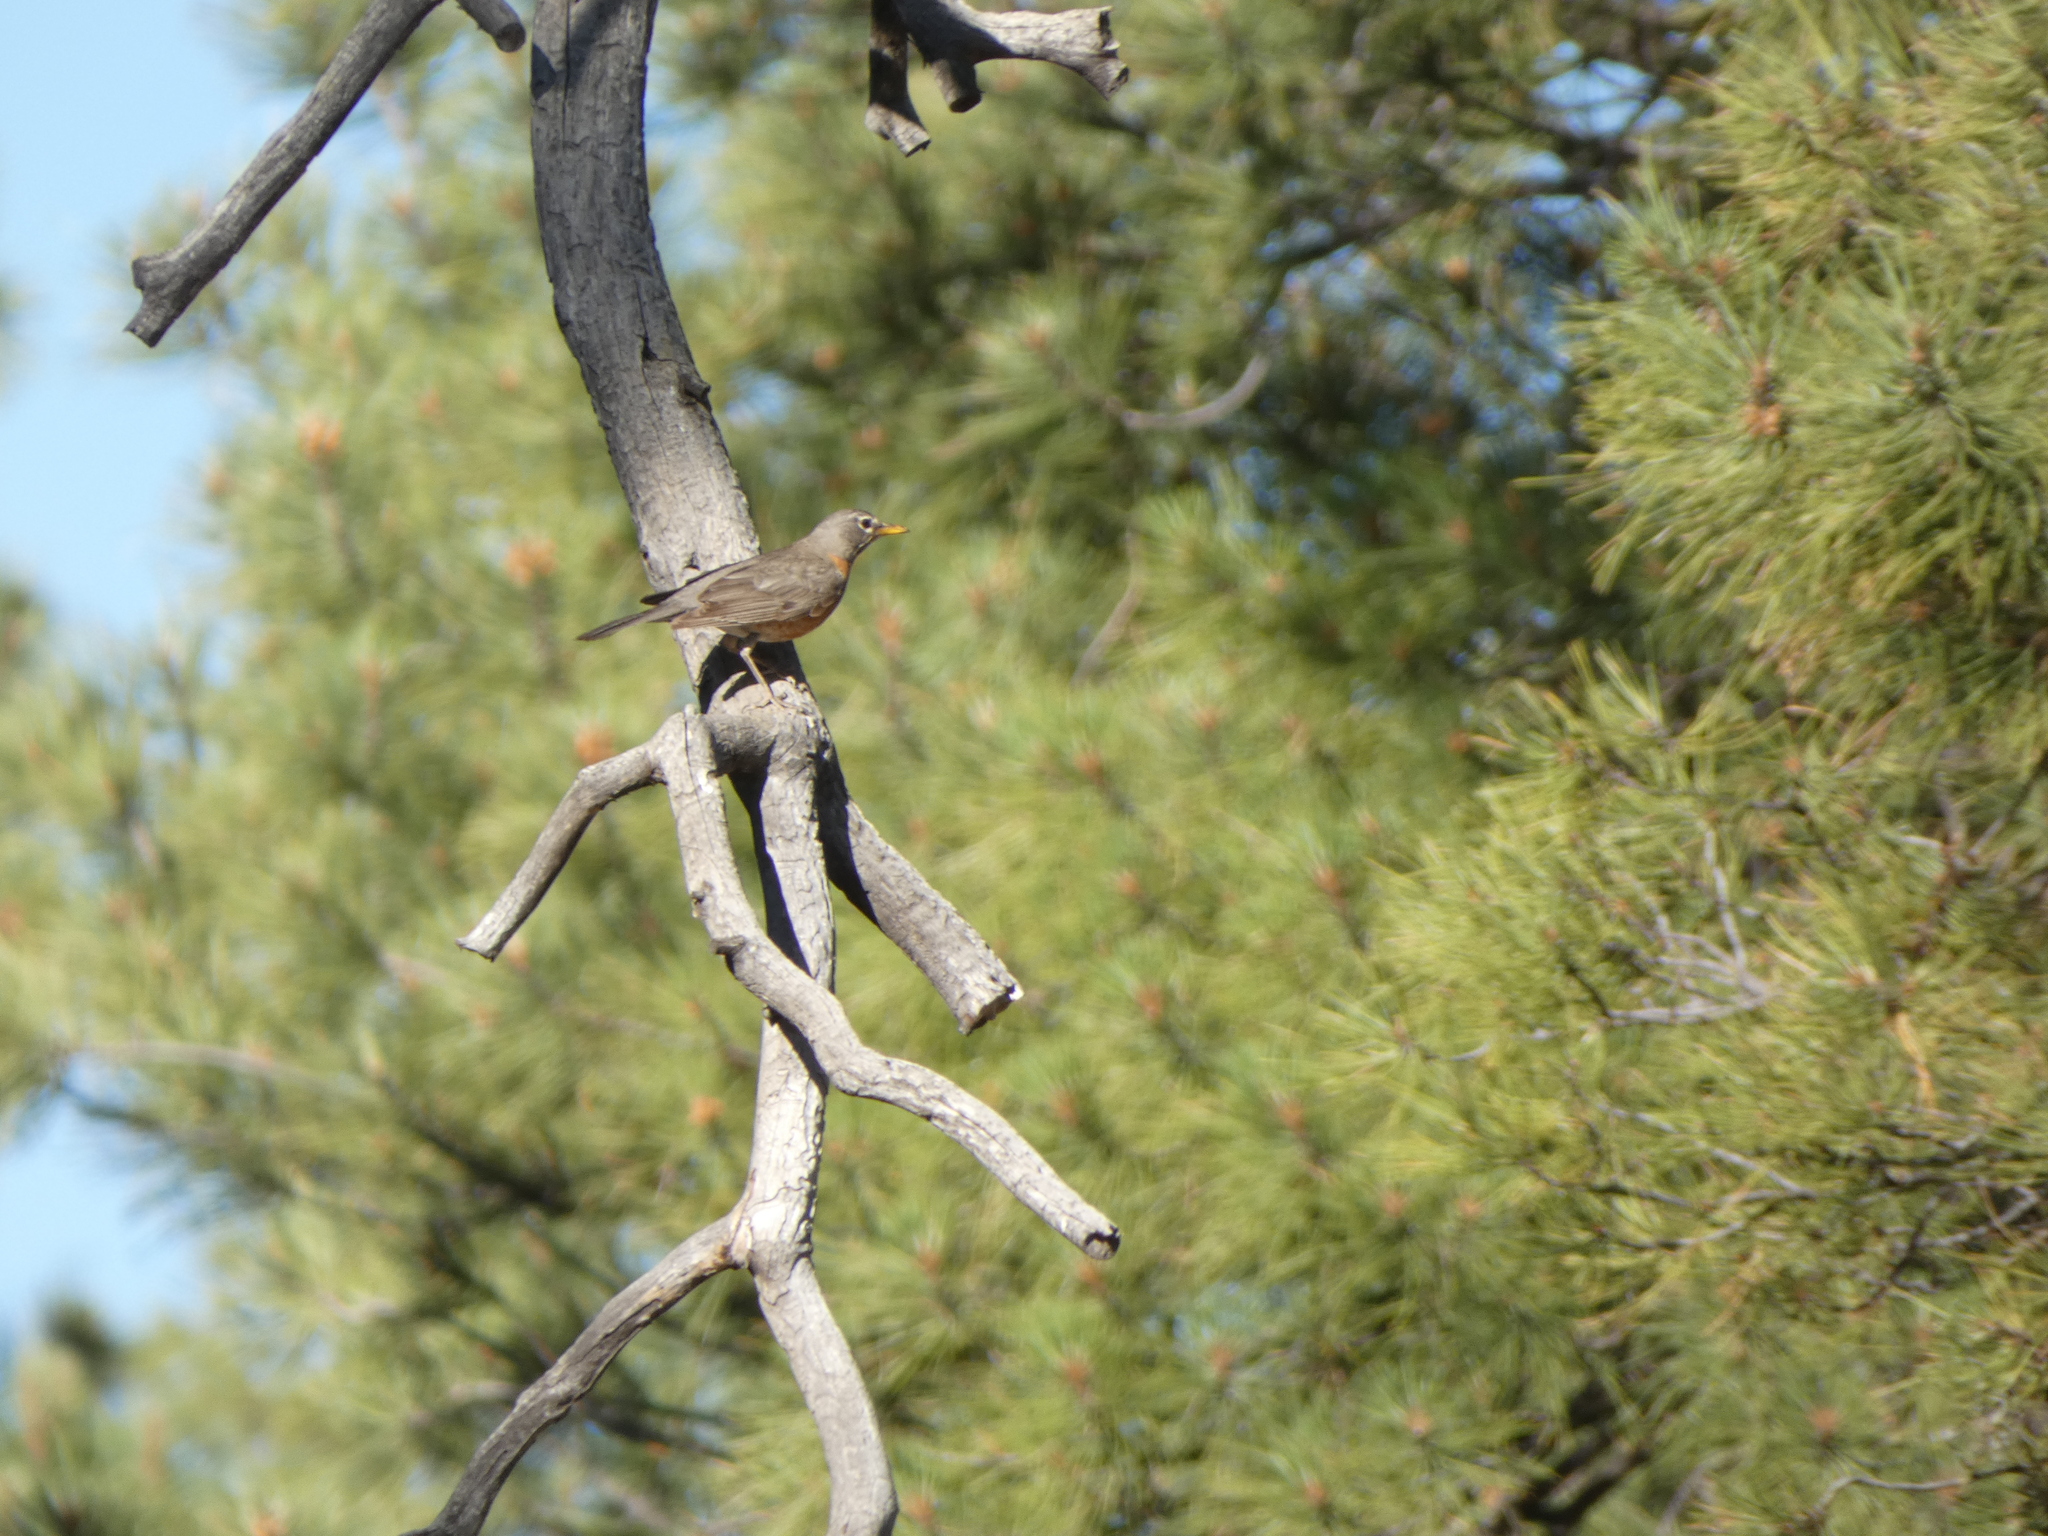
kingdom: Animalia
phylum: Chordata
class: Aves
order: Passeriformes
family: Turdidae
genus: Turdus
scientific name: Turdus migratorius
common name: American robin
